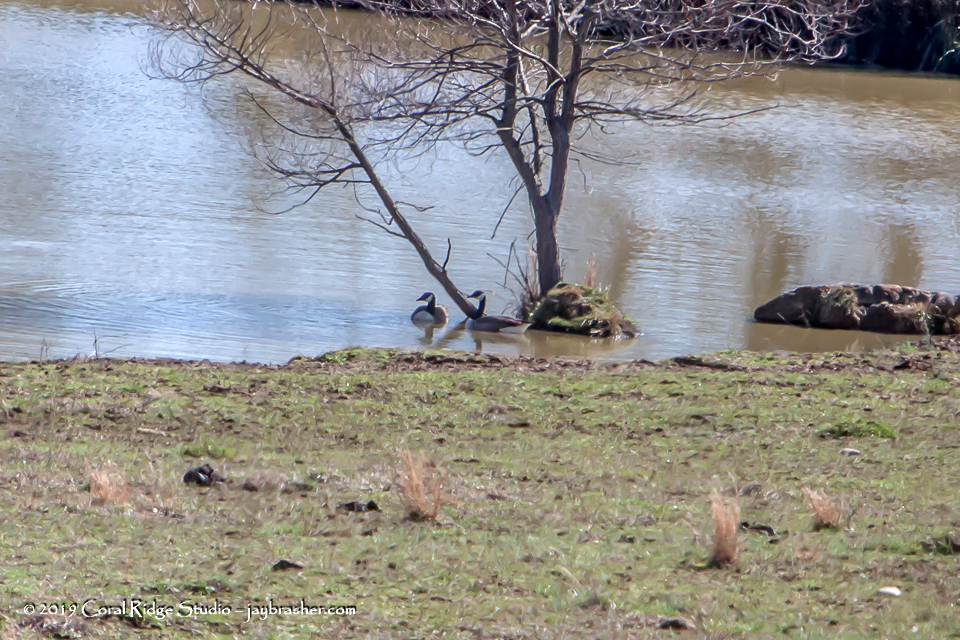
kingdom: Animalia
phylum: Chordata
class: Aves
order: Anseriformes
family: Anatidae
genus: Branta
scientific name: Branta canadensis
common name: Canada goose
